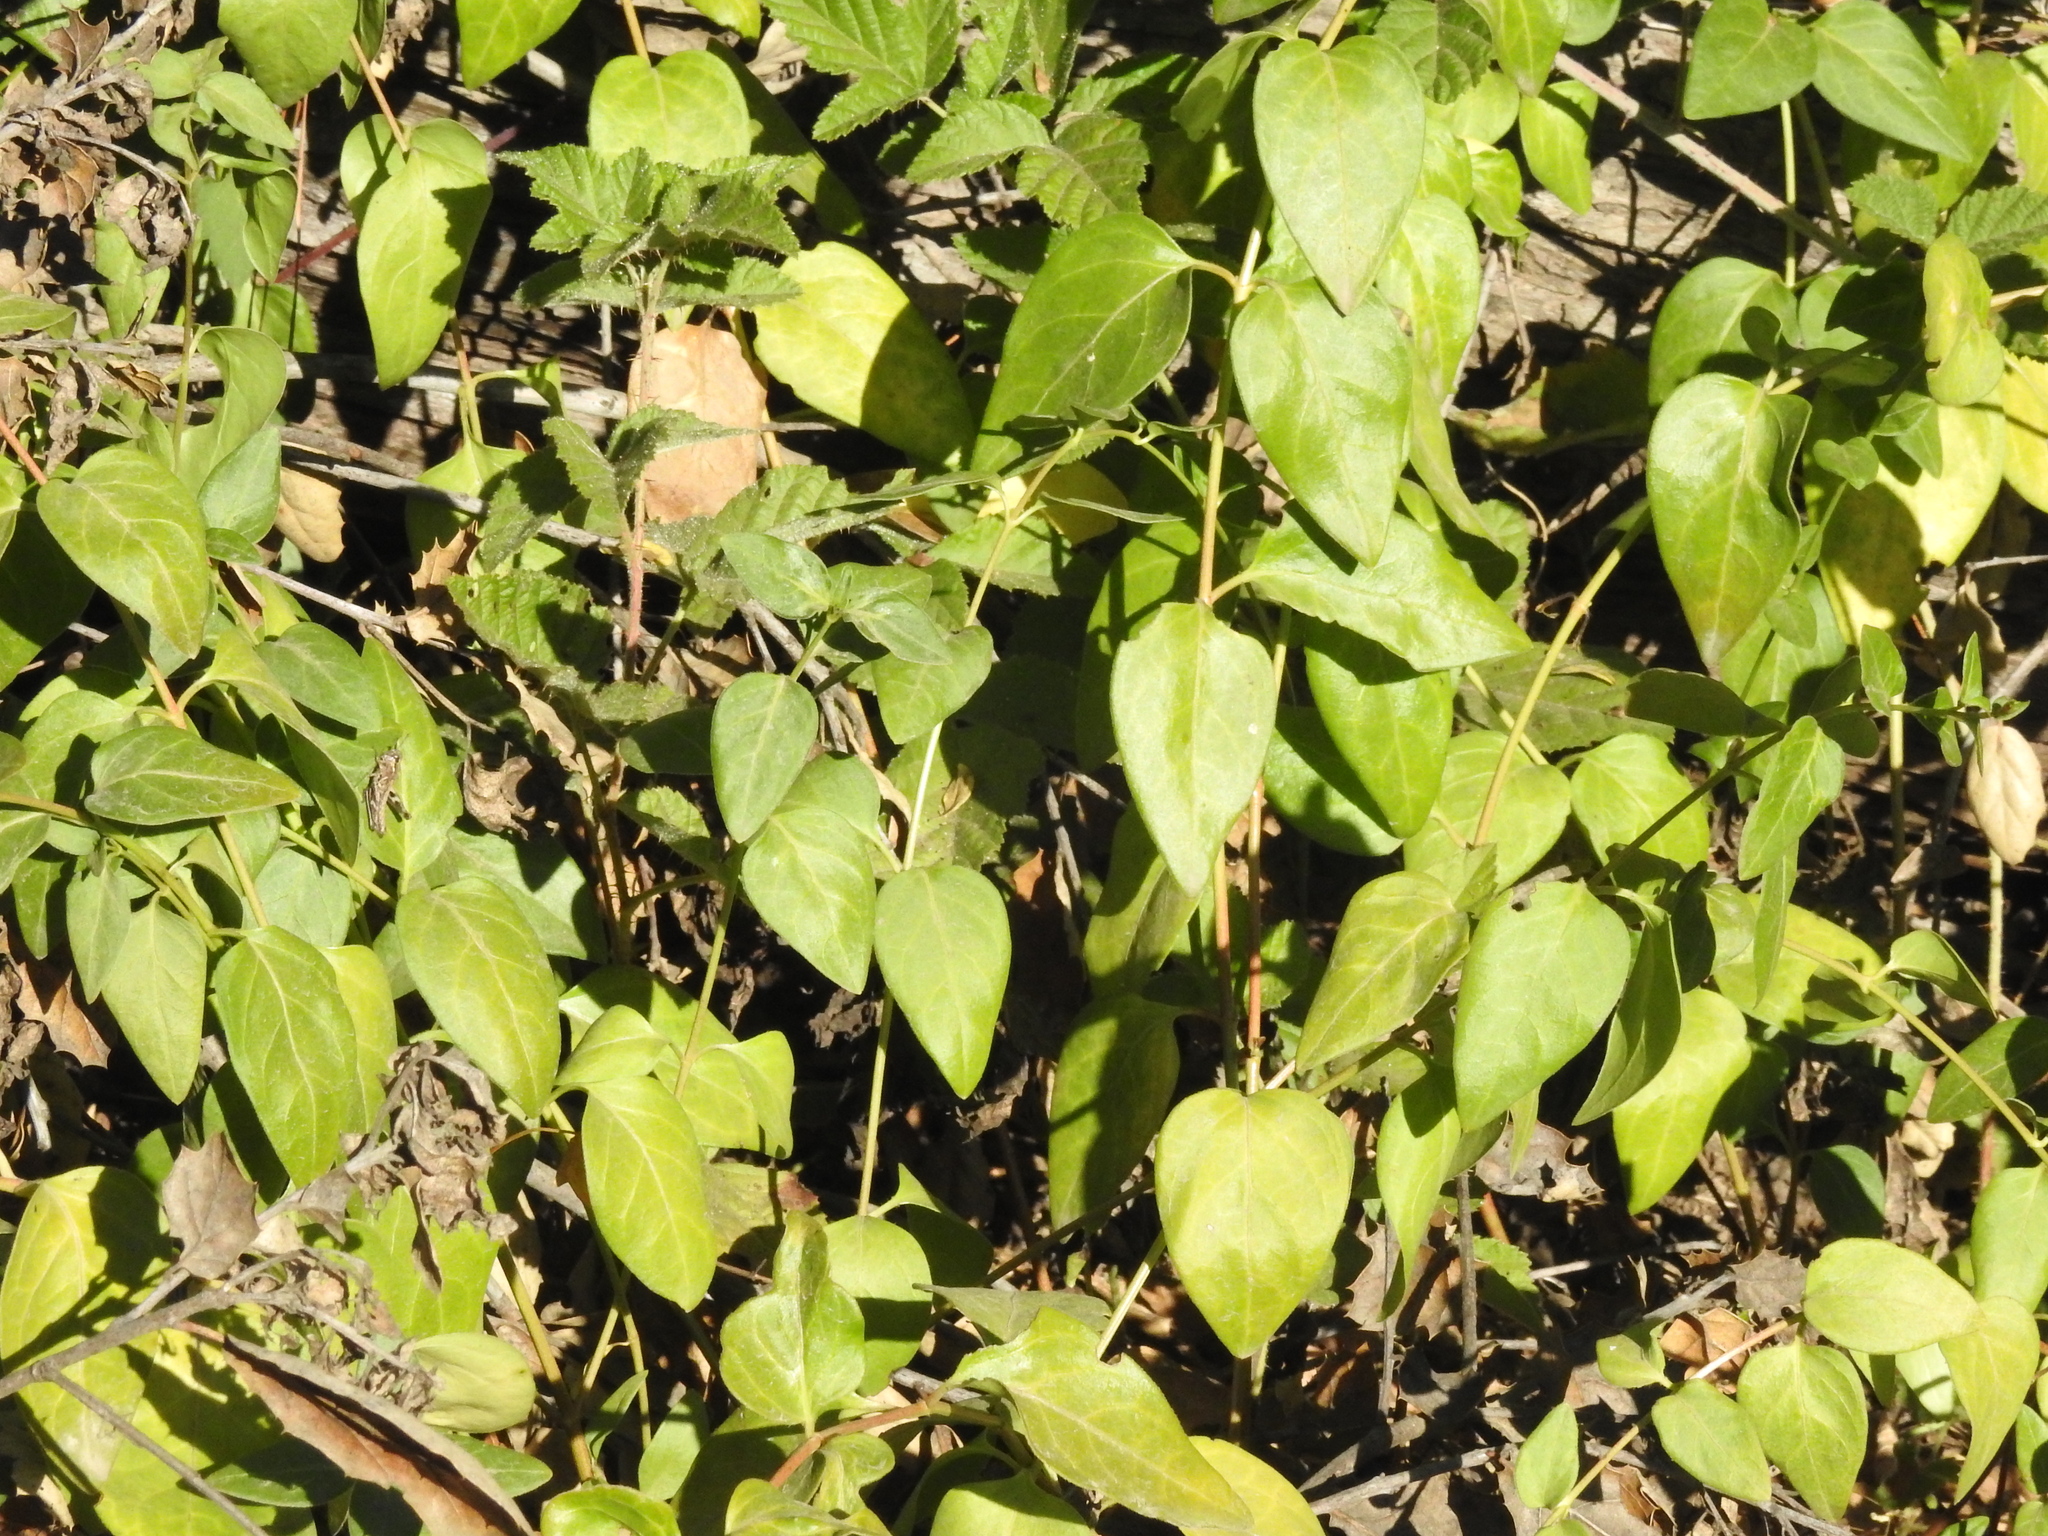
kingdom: Plantae
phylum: Tracheophyta
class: Magnoliopsida
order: Gentianales
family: Apocynaceae
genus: Vinca
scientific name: Vinca major
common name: Greater periwinkle
